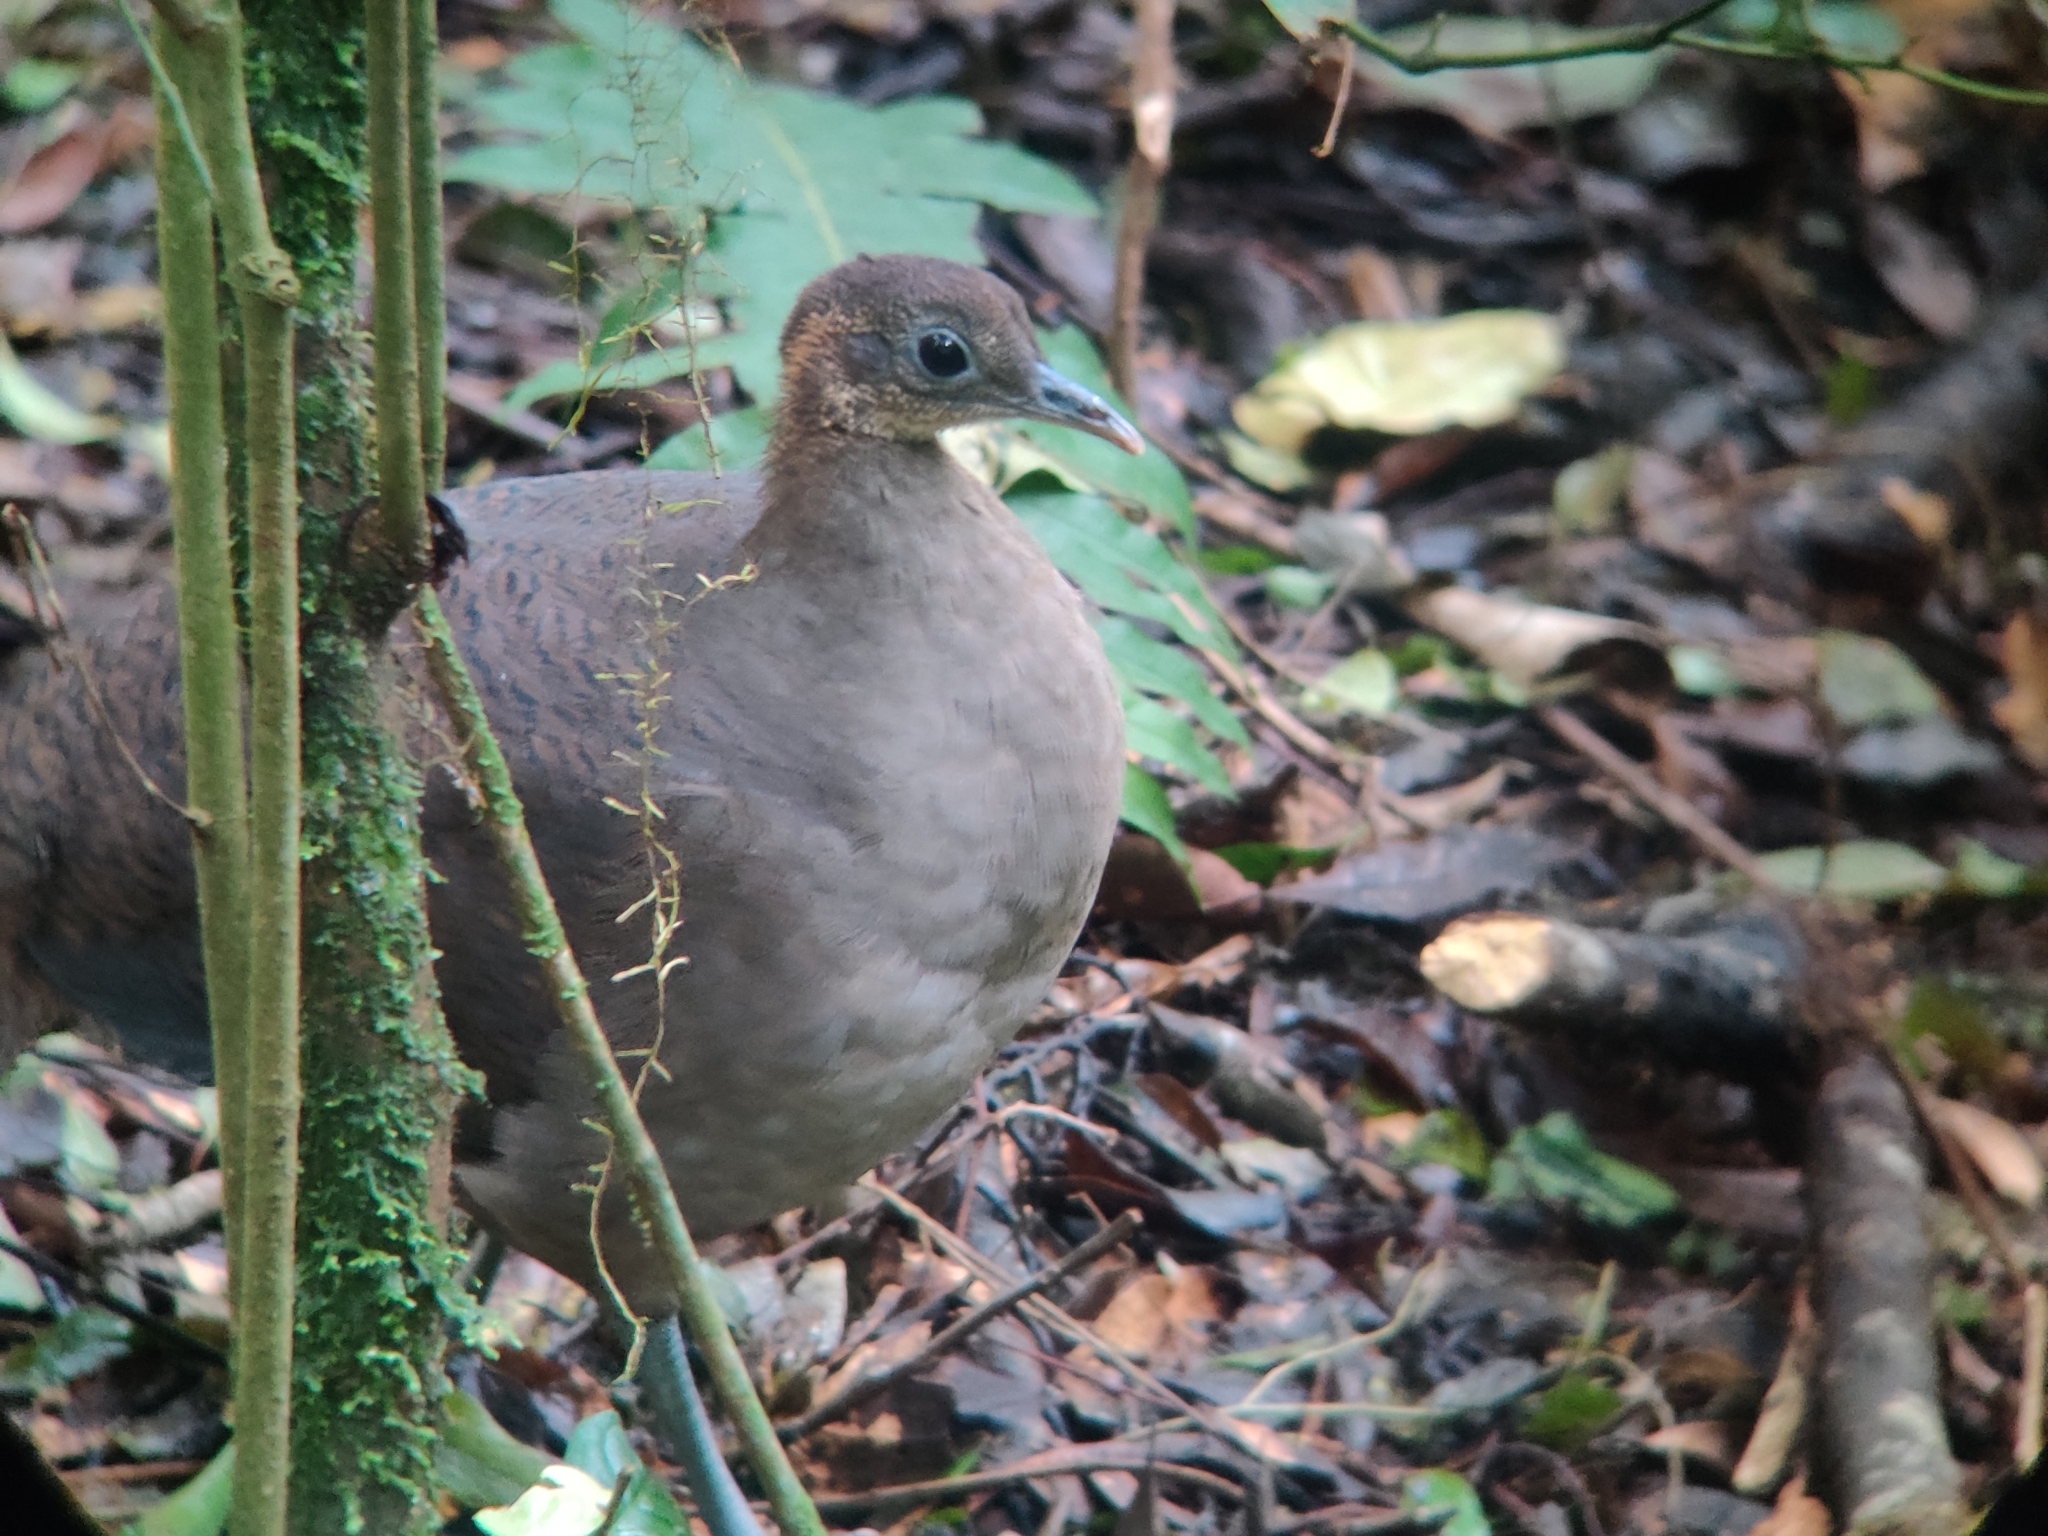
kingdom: Animalia
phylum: Chordata
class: Aves
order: Tinamiformes
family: Tinamidae
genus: Tinamus
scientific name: Tinamus solitarius
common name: Solitary tinamou
